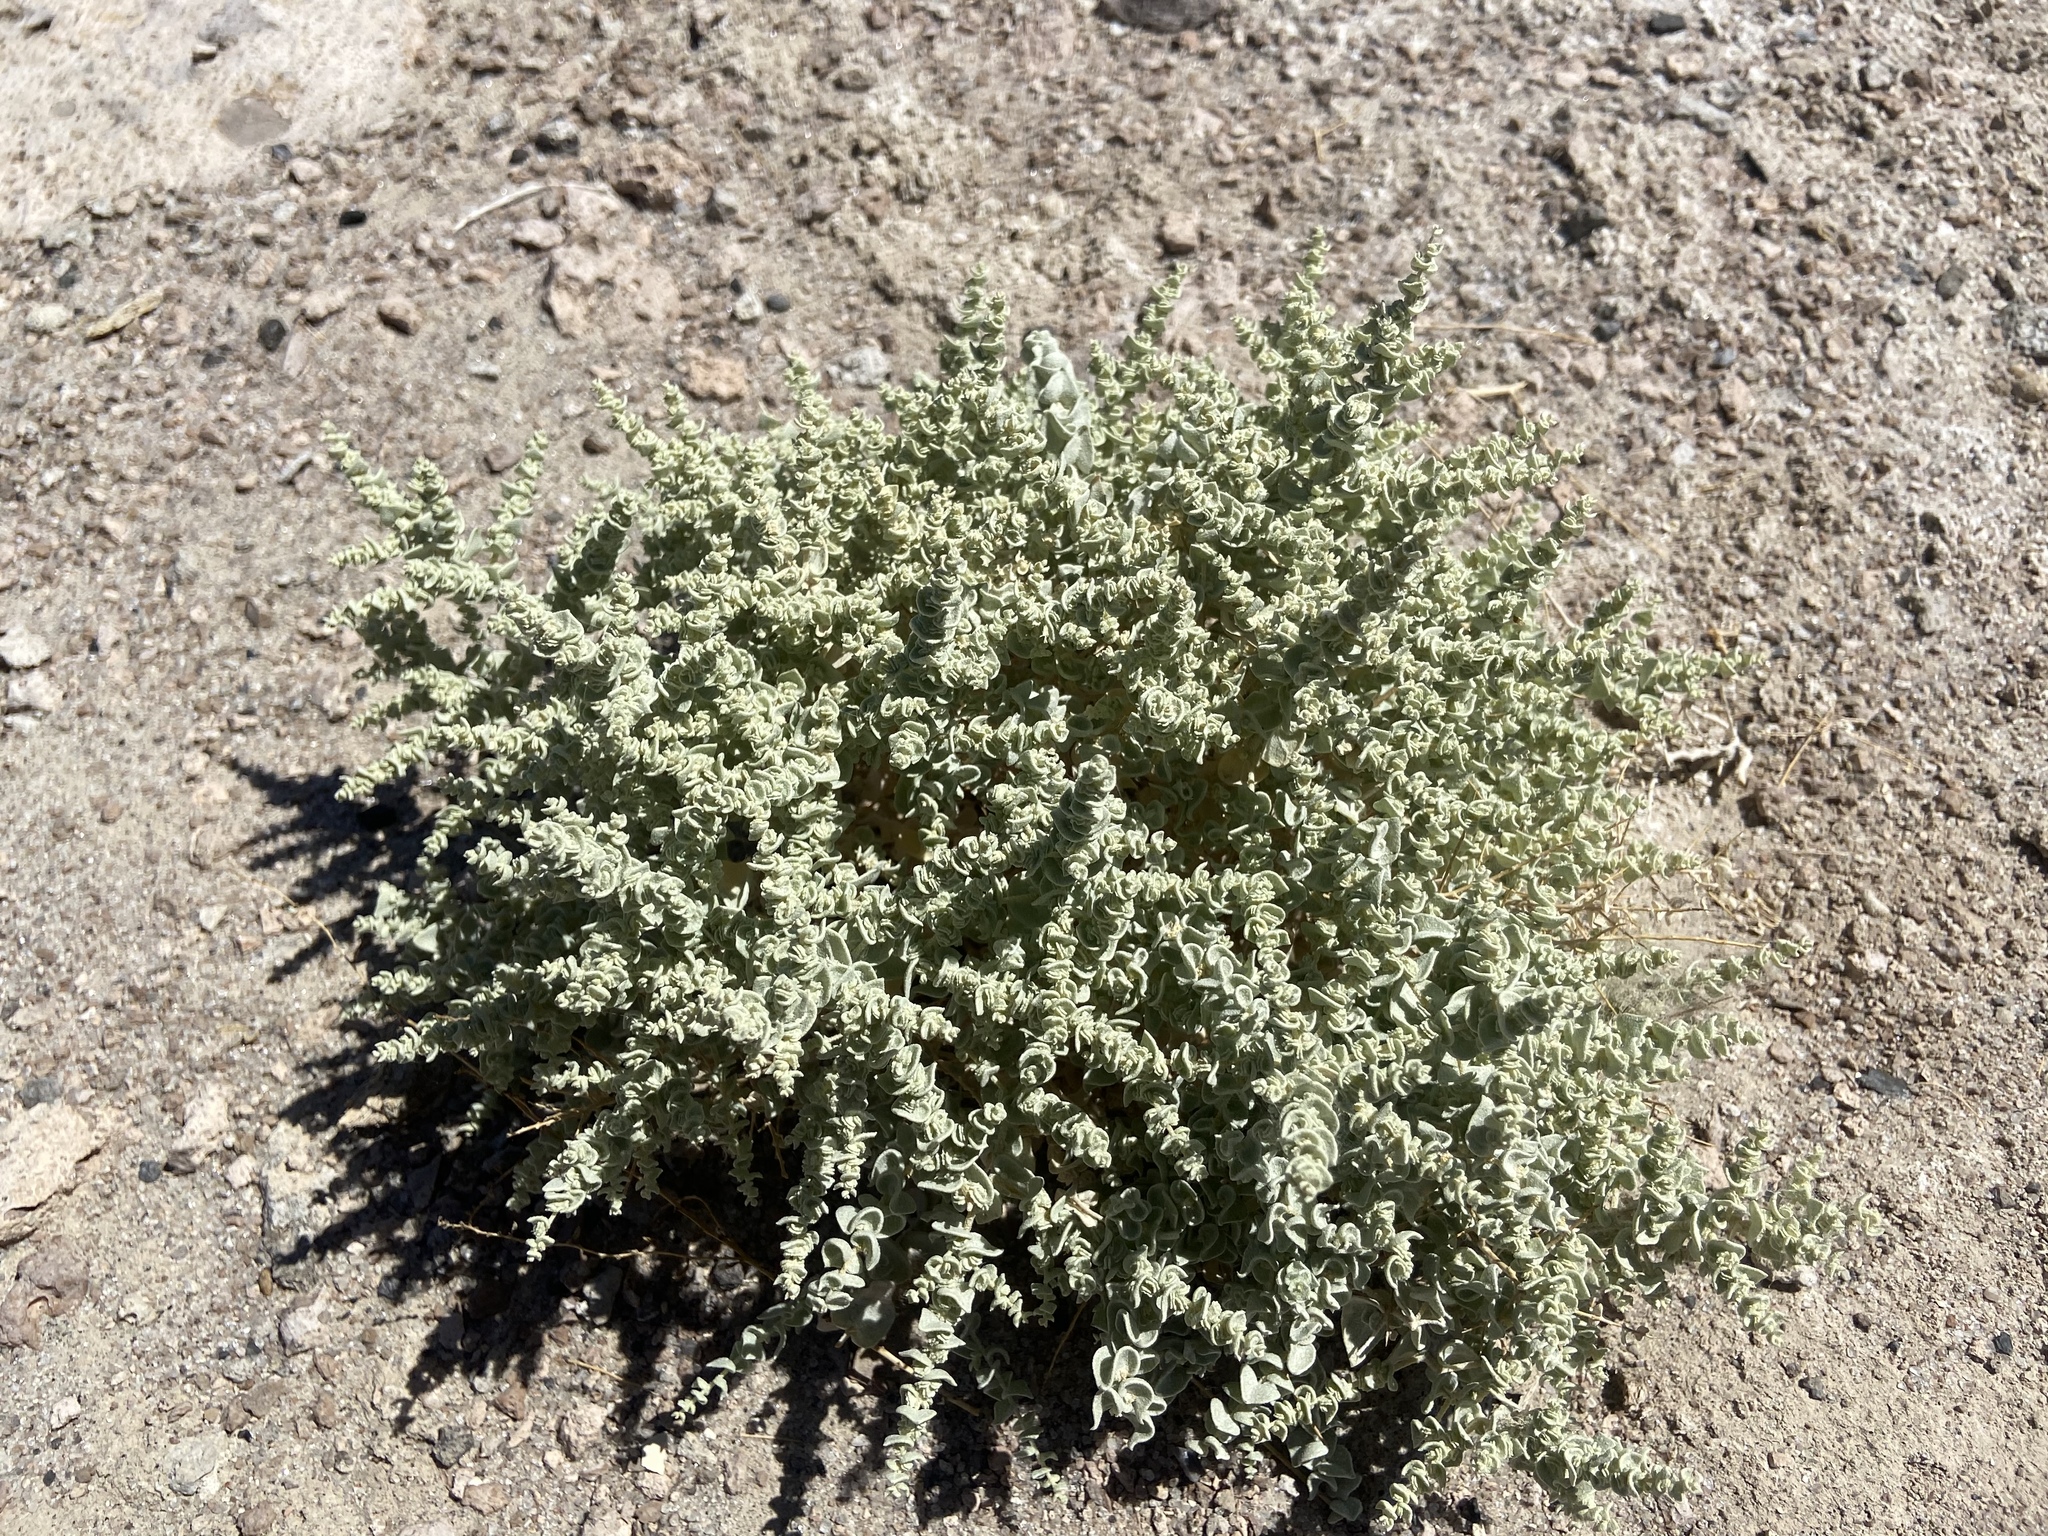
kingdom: Plantae
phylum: Tracheophyta
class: Magnoliopsida
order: Caryophyllales
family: Amaranthaceae
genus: Atriplex
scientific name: Atriplex parryi
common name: Parry's saltbush
